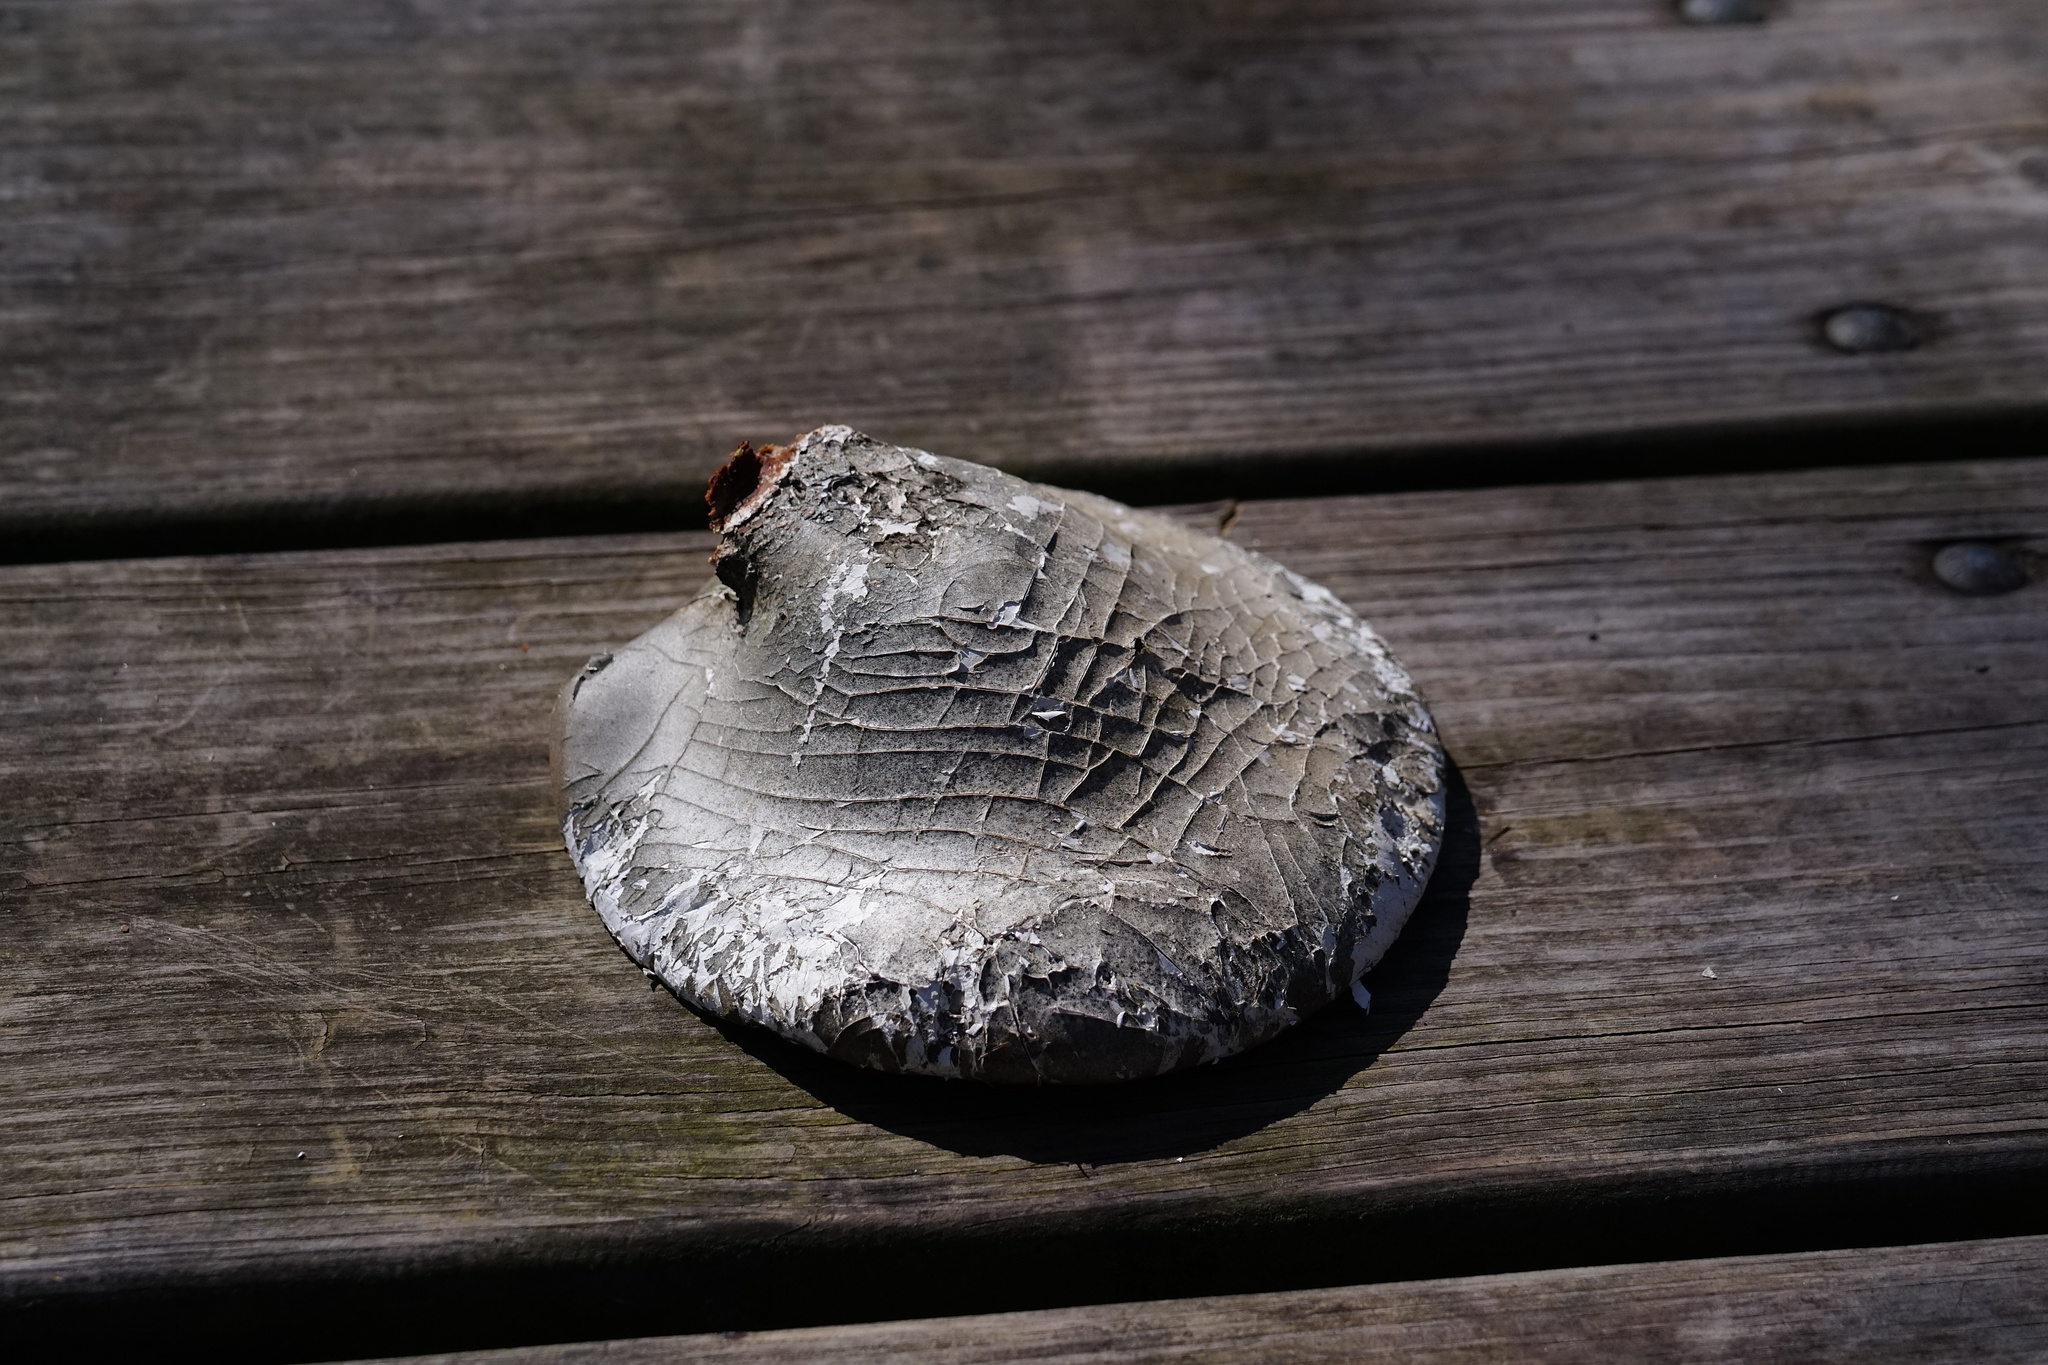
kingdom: Fungi
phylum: Basidiomycota
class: Agaricomycetes
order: Polyporales
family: Fomitopsidaceae
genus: Fomitopsis
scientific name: Fomitopsis betulina
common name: Birch polypore
